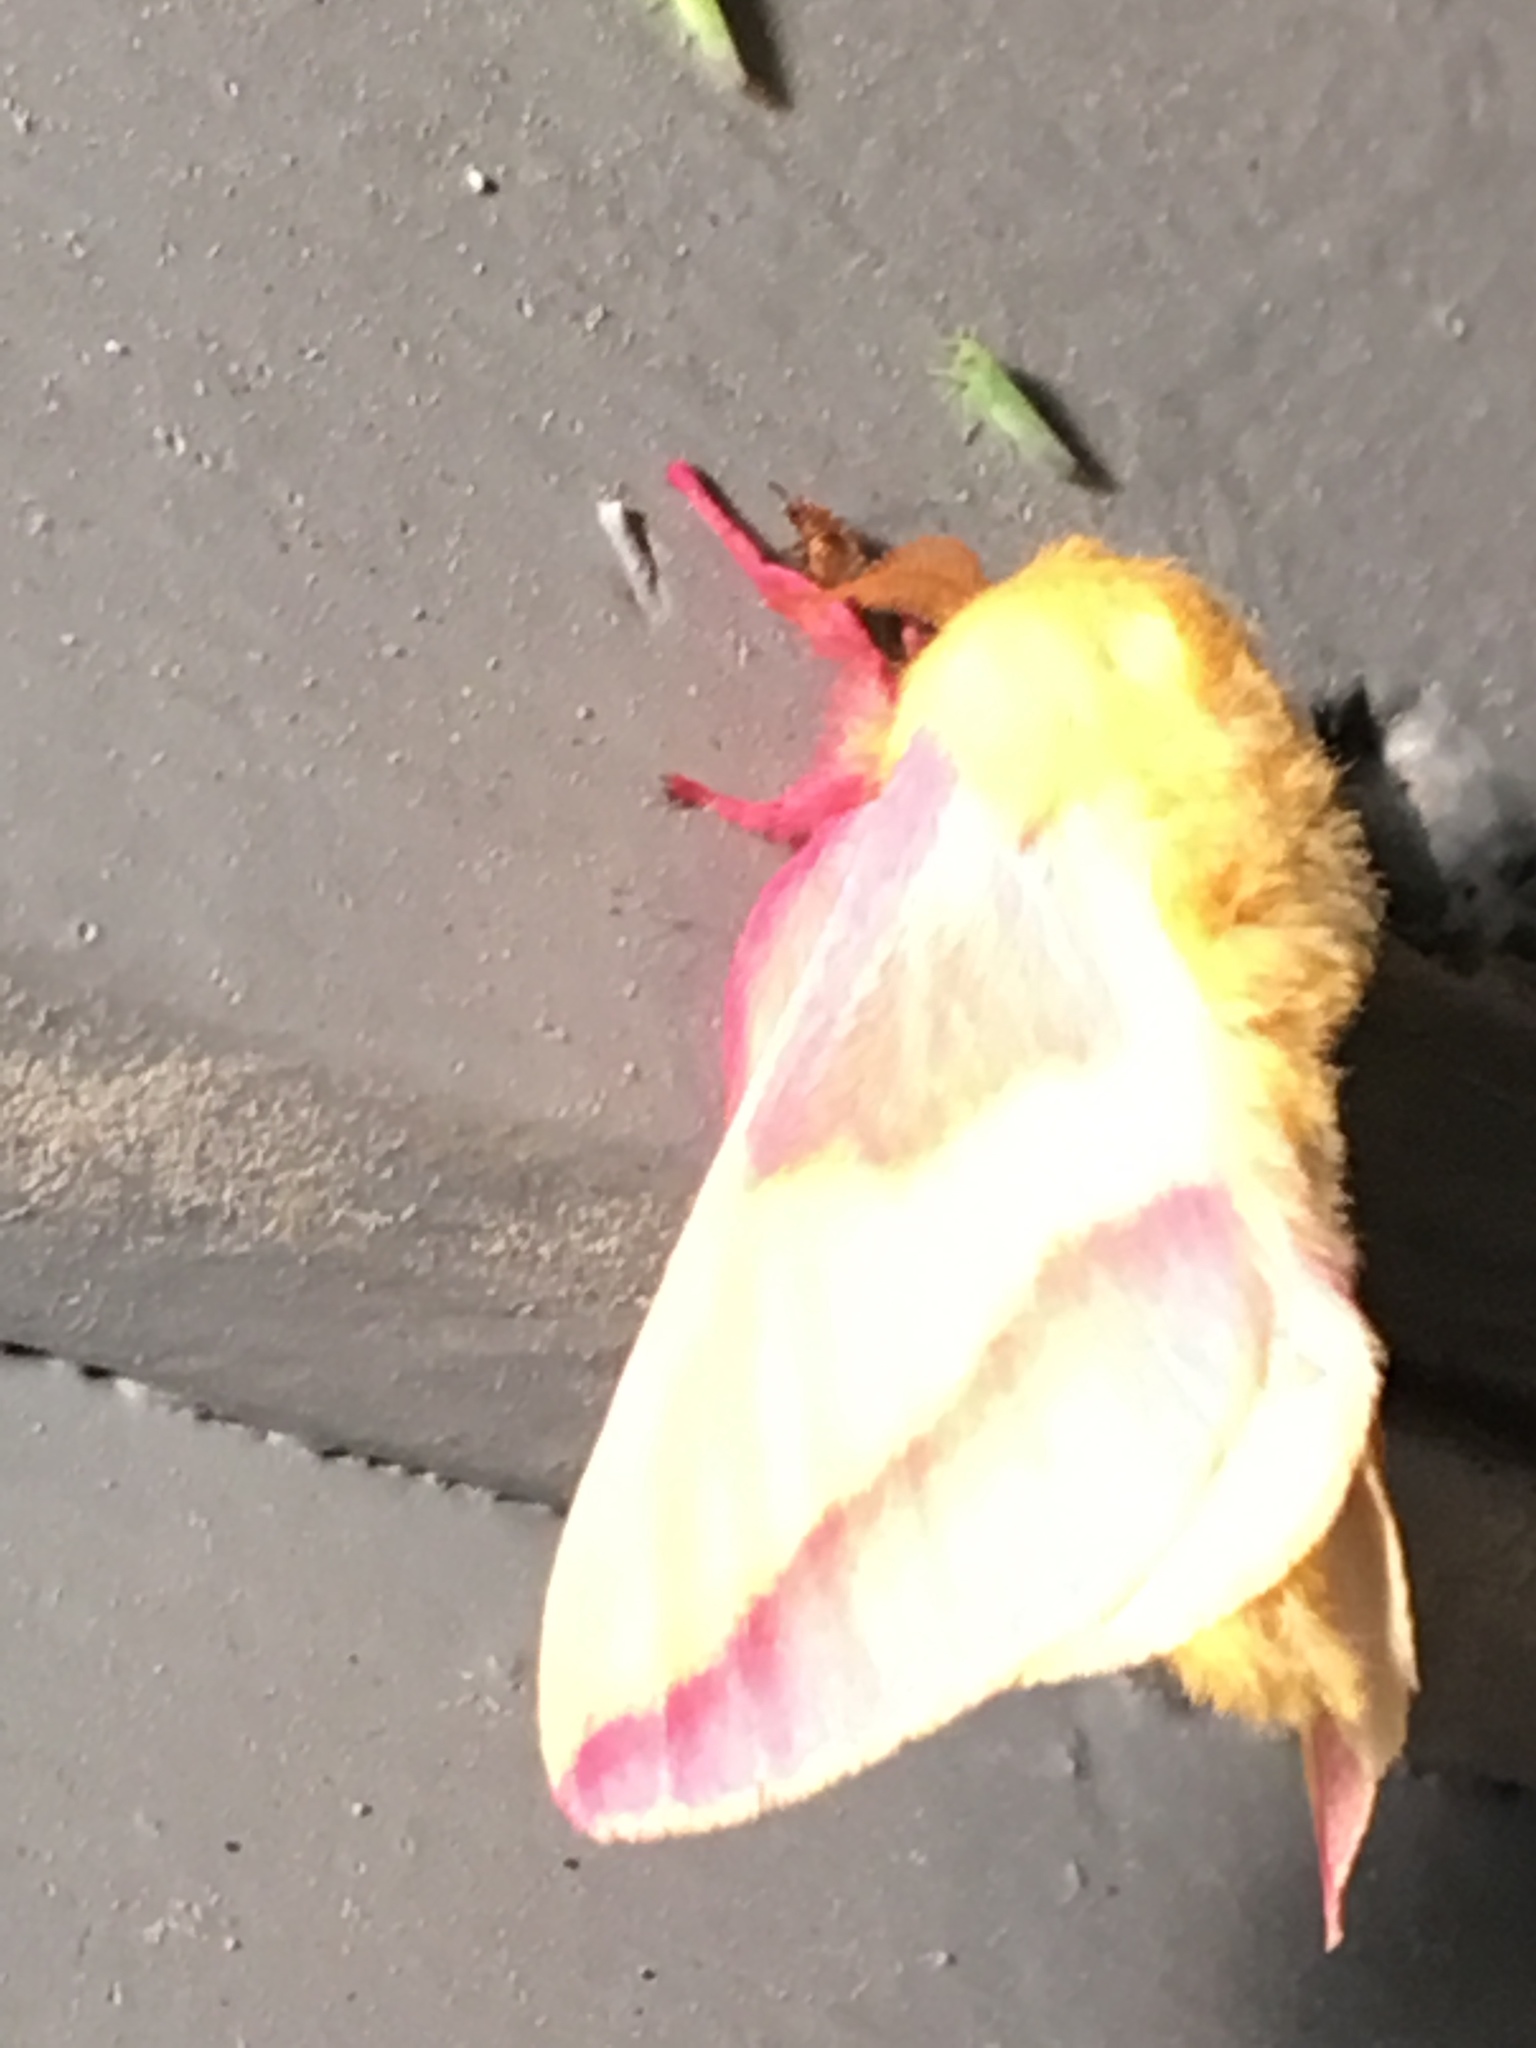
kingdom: Animalia
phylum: Arthropoda
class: Insecta
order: Lepidoptera
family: Saturniidae
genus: Dryocampa
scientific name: Dryocampa rubicunda
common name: Rosy maple moth
